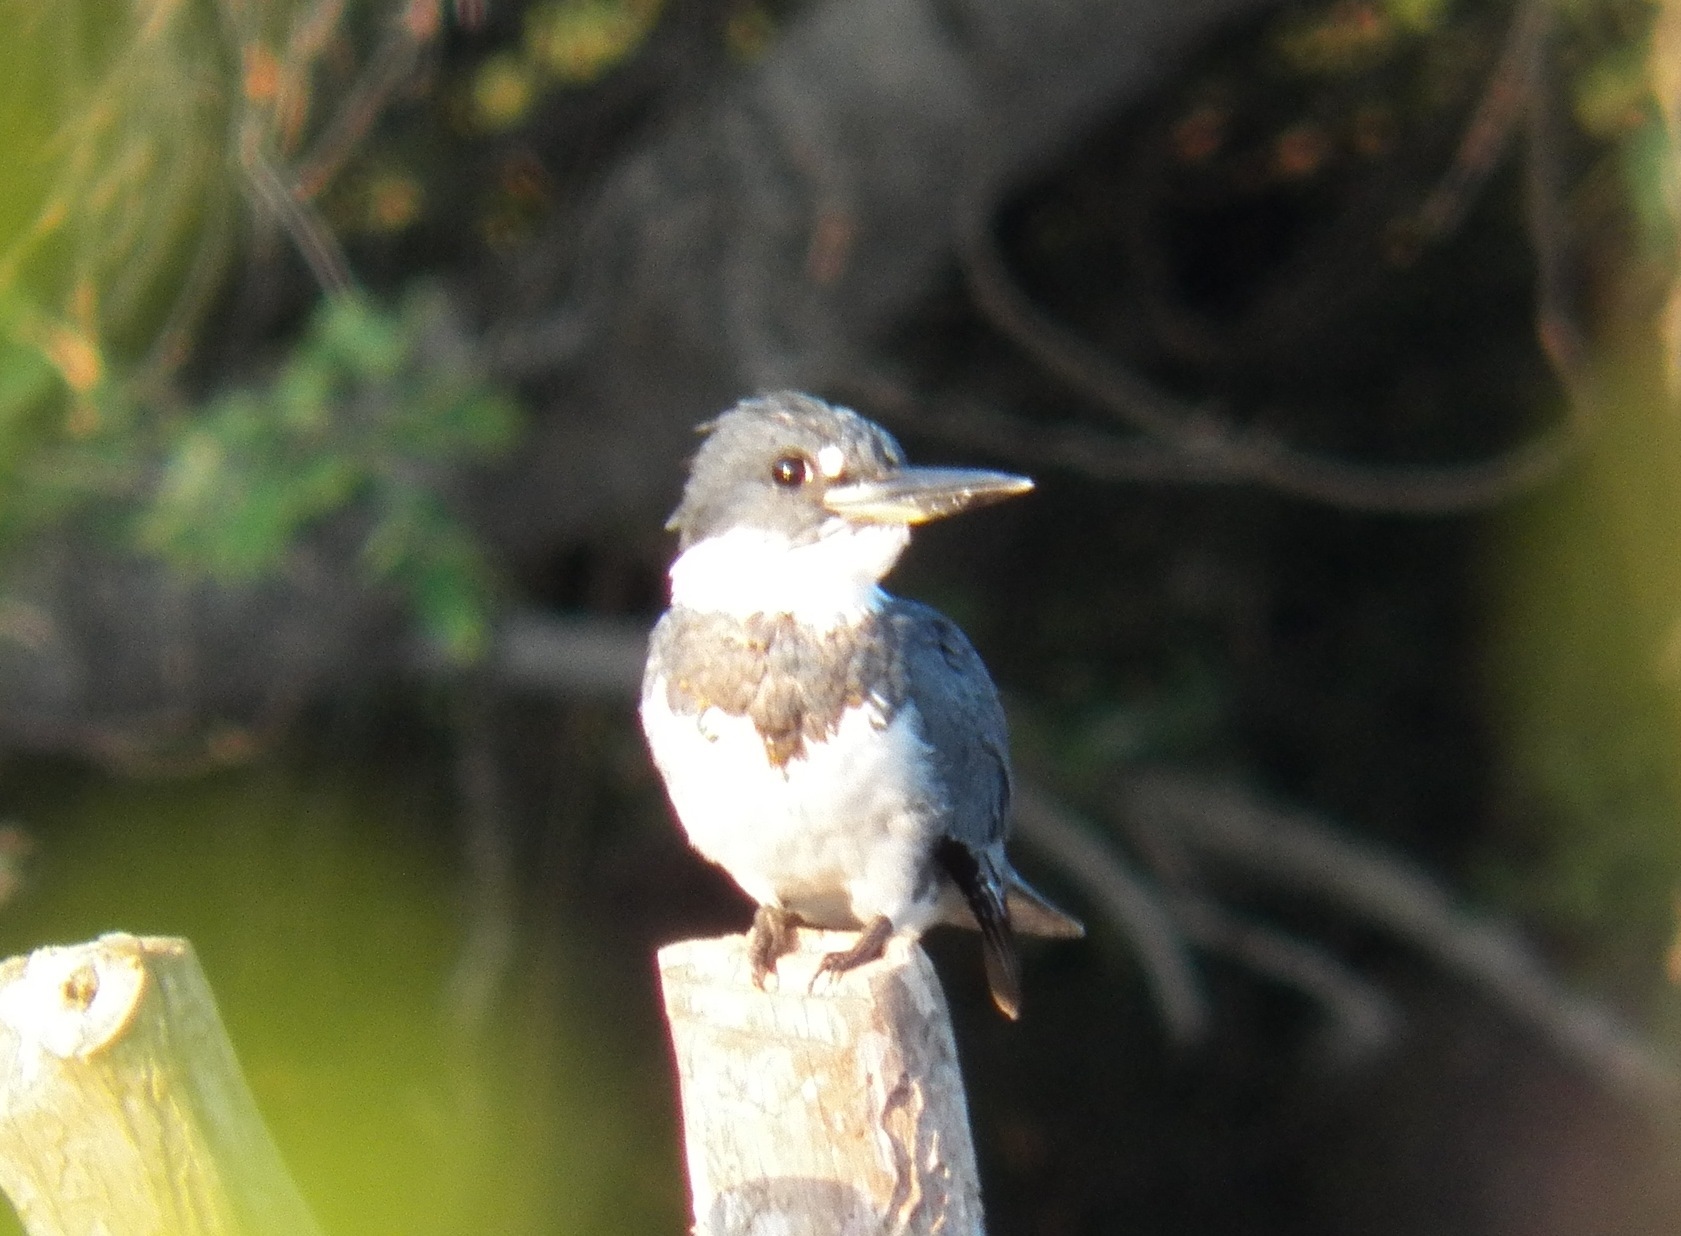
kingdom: Animalia
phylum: Chordata
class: Aves
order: Coraciiformes
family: Alcedinidae
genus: Chloroceryle
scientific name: Chloroceryle americana
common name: Green kingfisher
